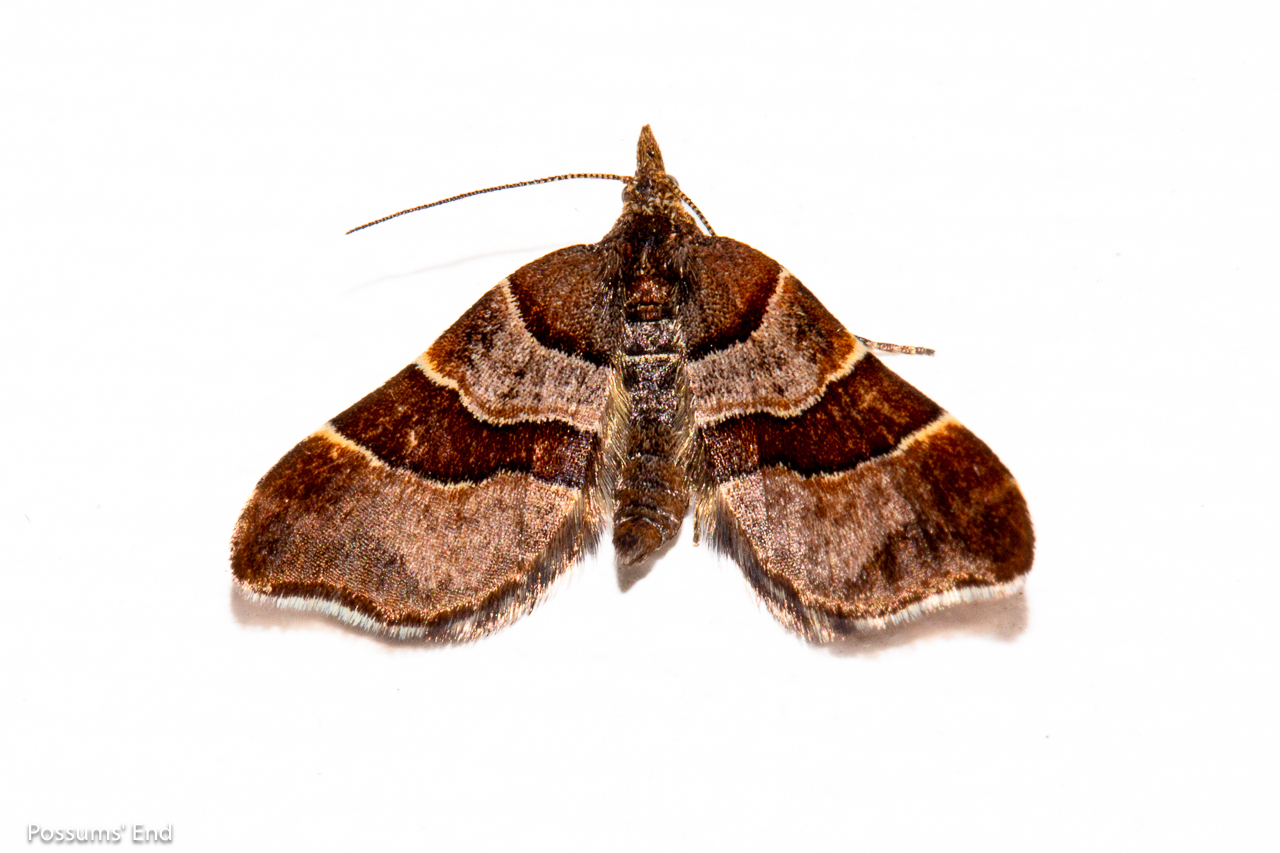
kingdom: Animalia
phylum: Arthropoda
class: Insecta
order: Lepidoptera
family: Geometridae
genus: Cephalissa
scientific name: Cephalissa siria
